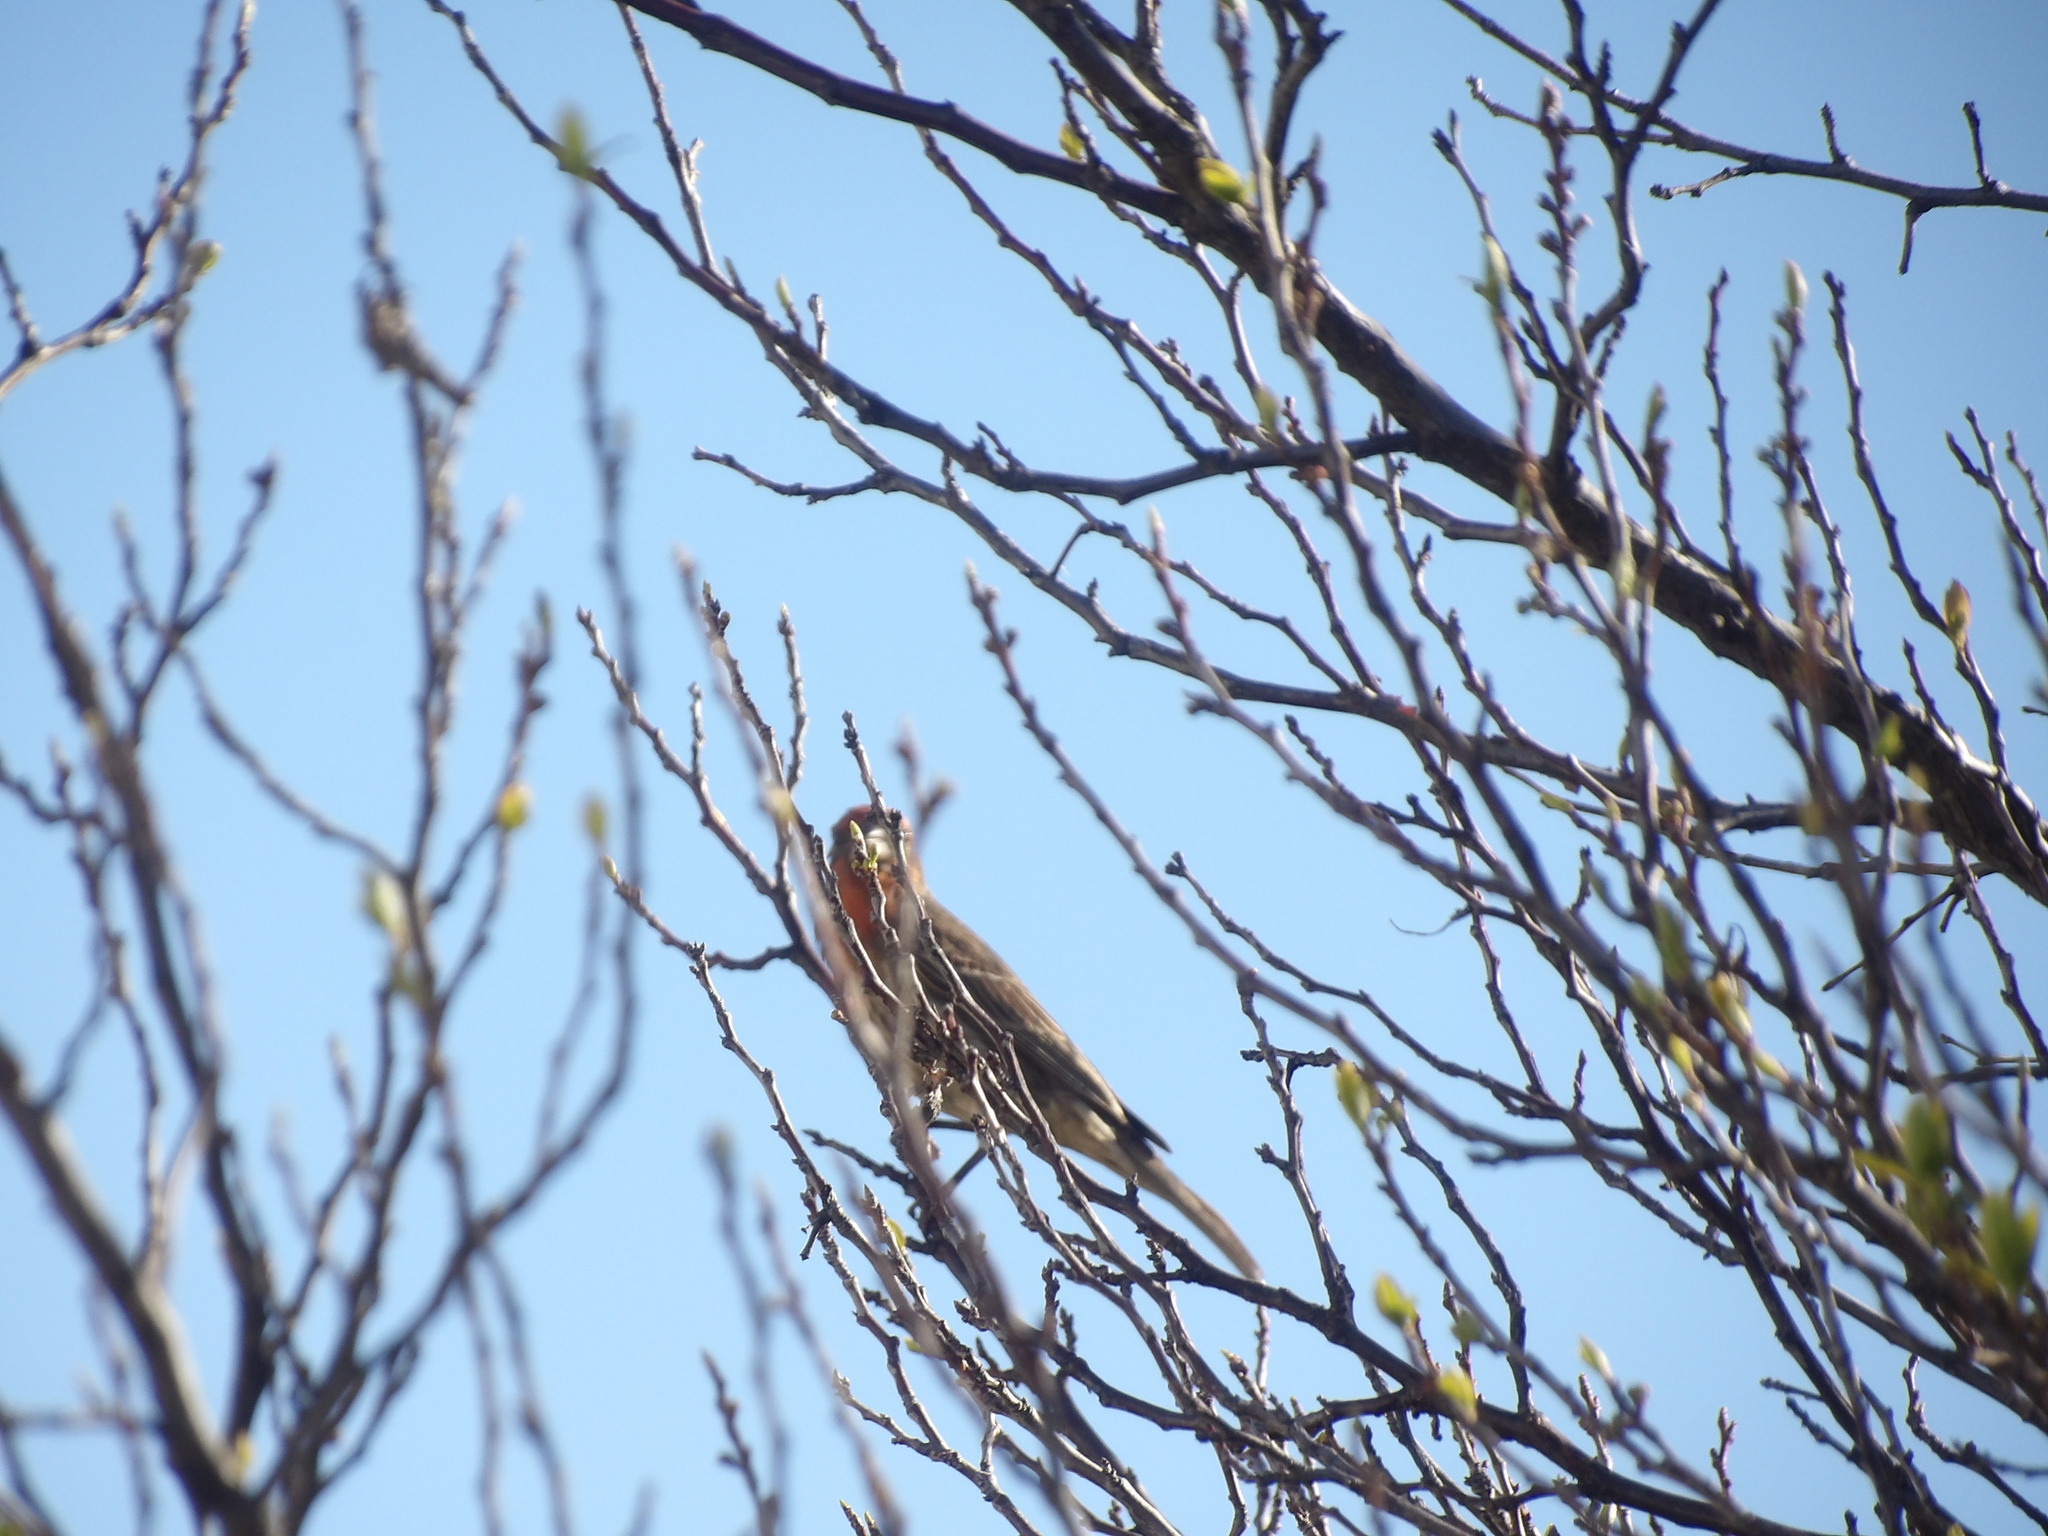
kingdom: Animalia
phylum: Chordata
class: Aves
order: Passeriformes
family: Fringillidae
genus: Haemorhous
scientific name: Haemorhous mexicanus
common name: House finch
